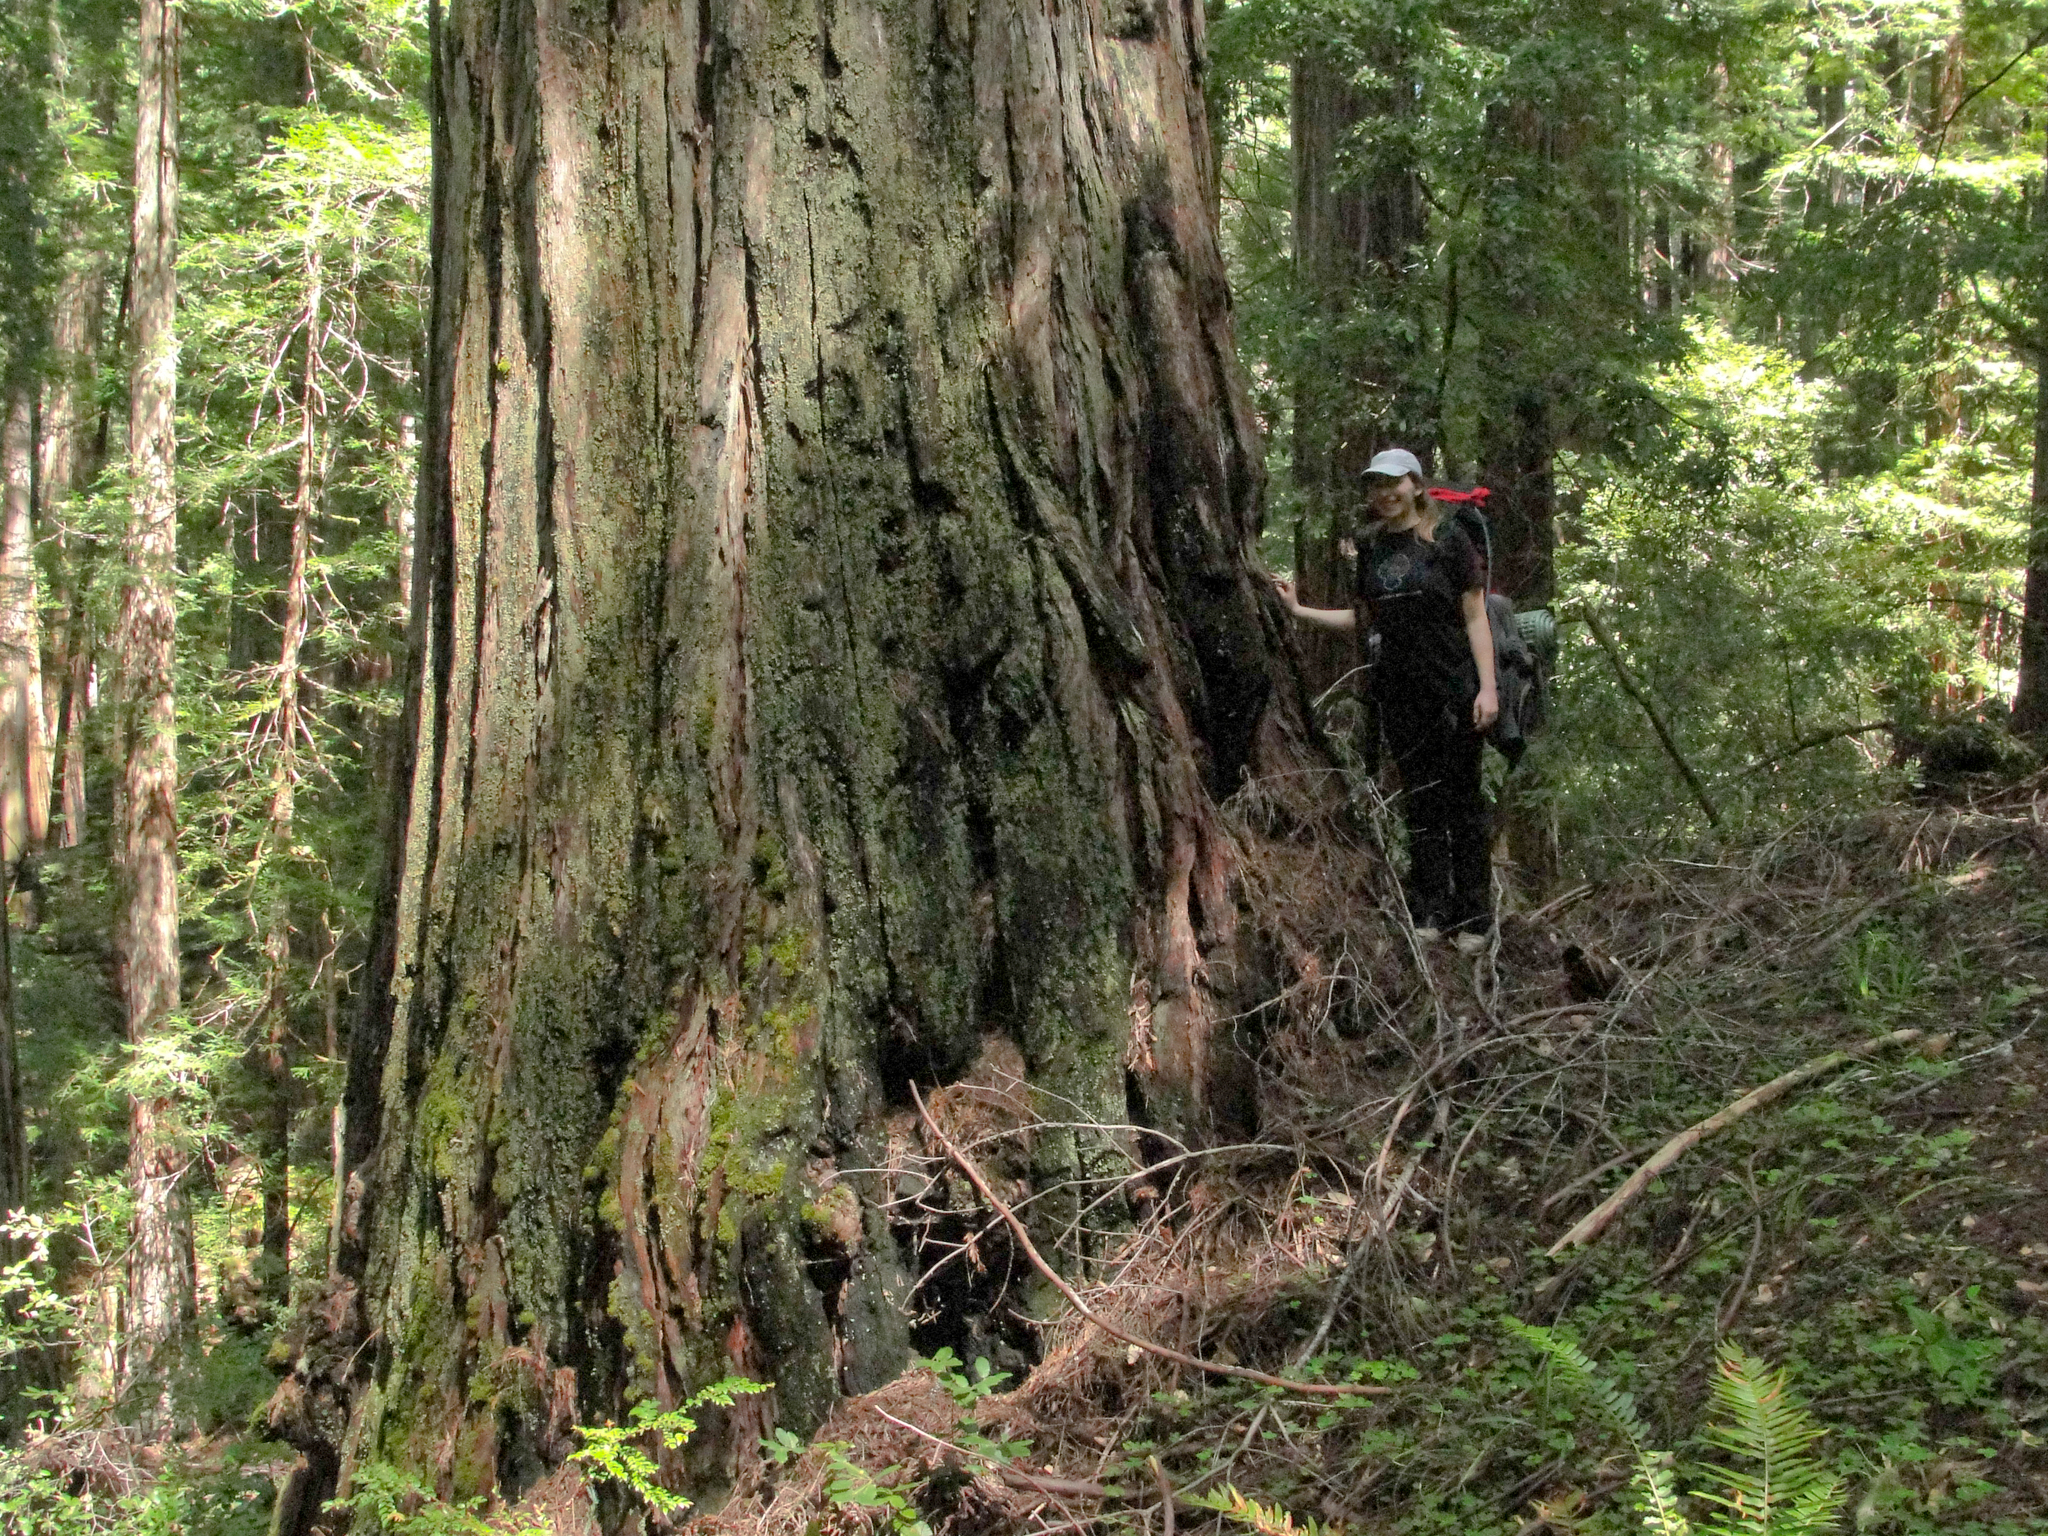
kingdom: Plantae
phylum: Tracheophyta
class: Pinopsida
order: Pinales
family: Cupressaceae
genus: Sequoia
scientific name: Sequoia sempervirens
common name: Coast redwood
